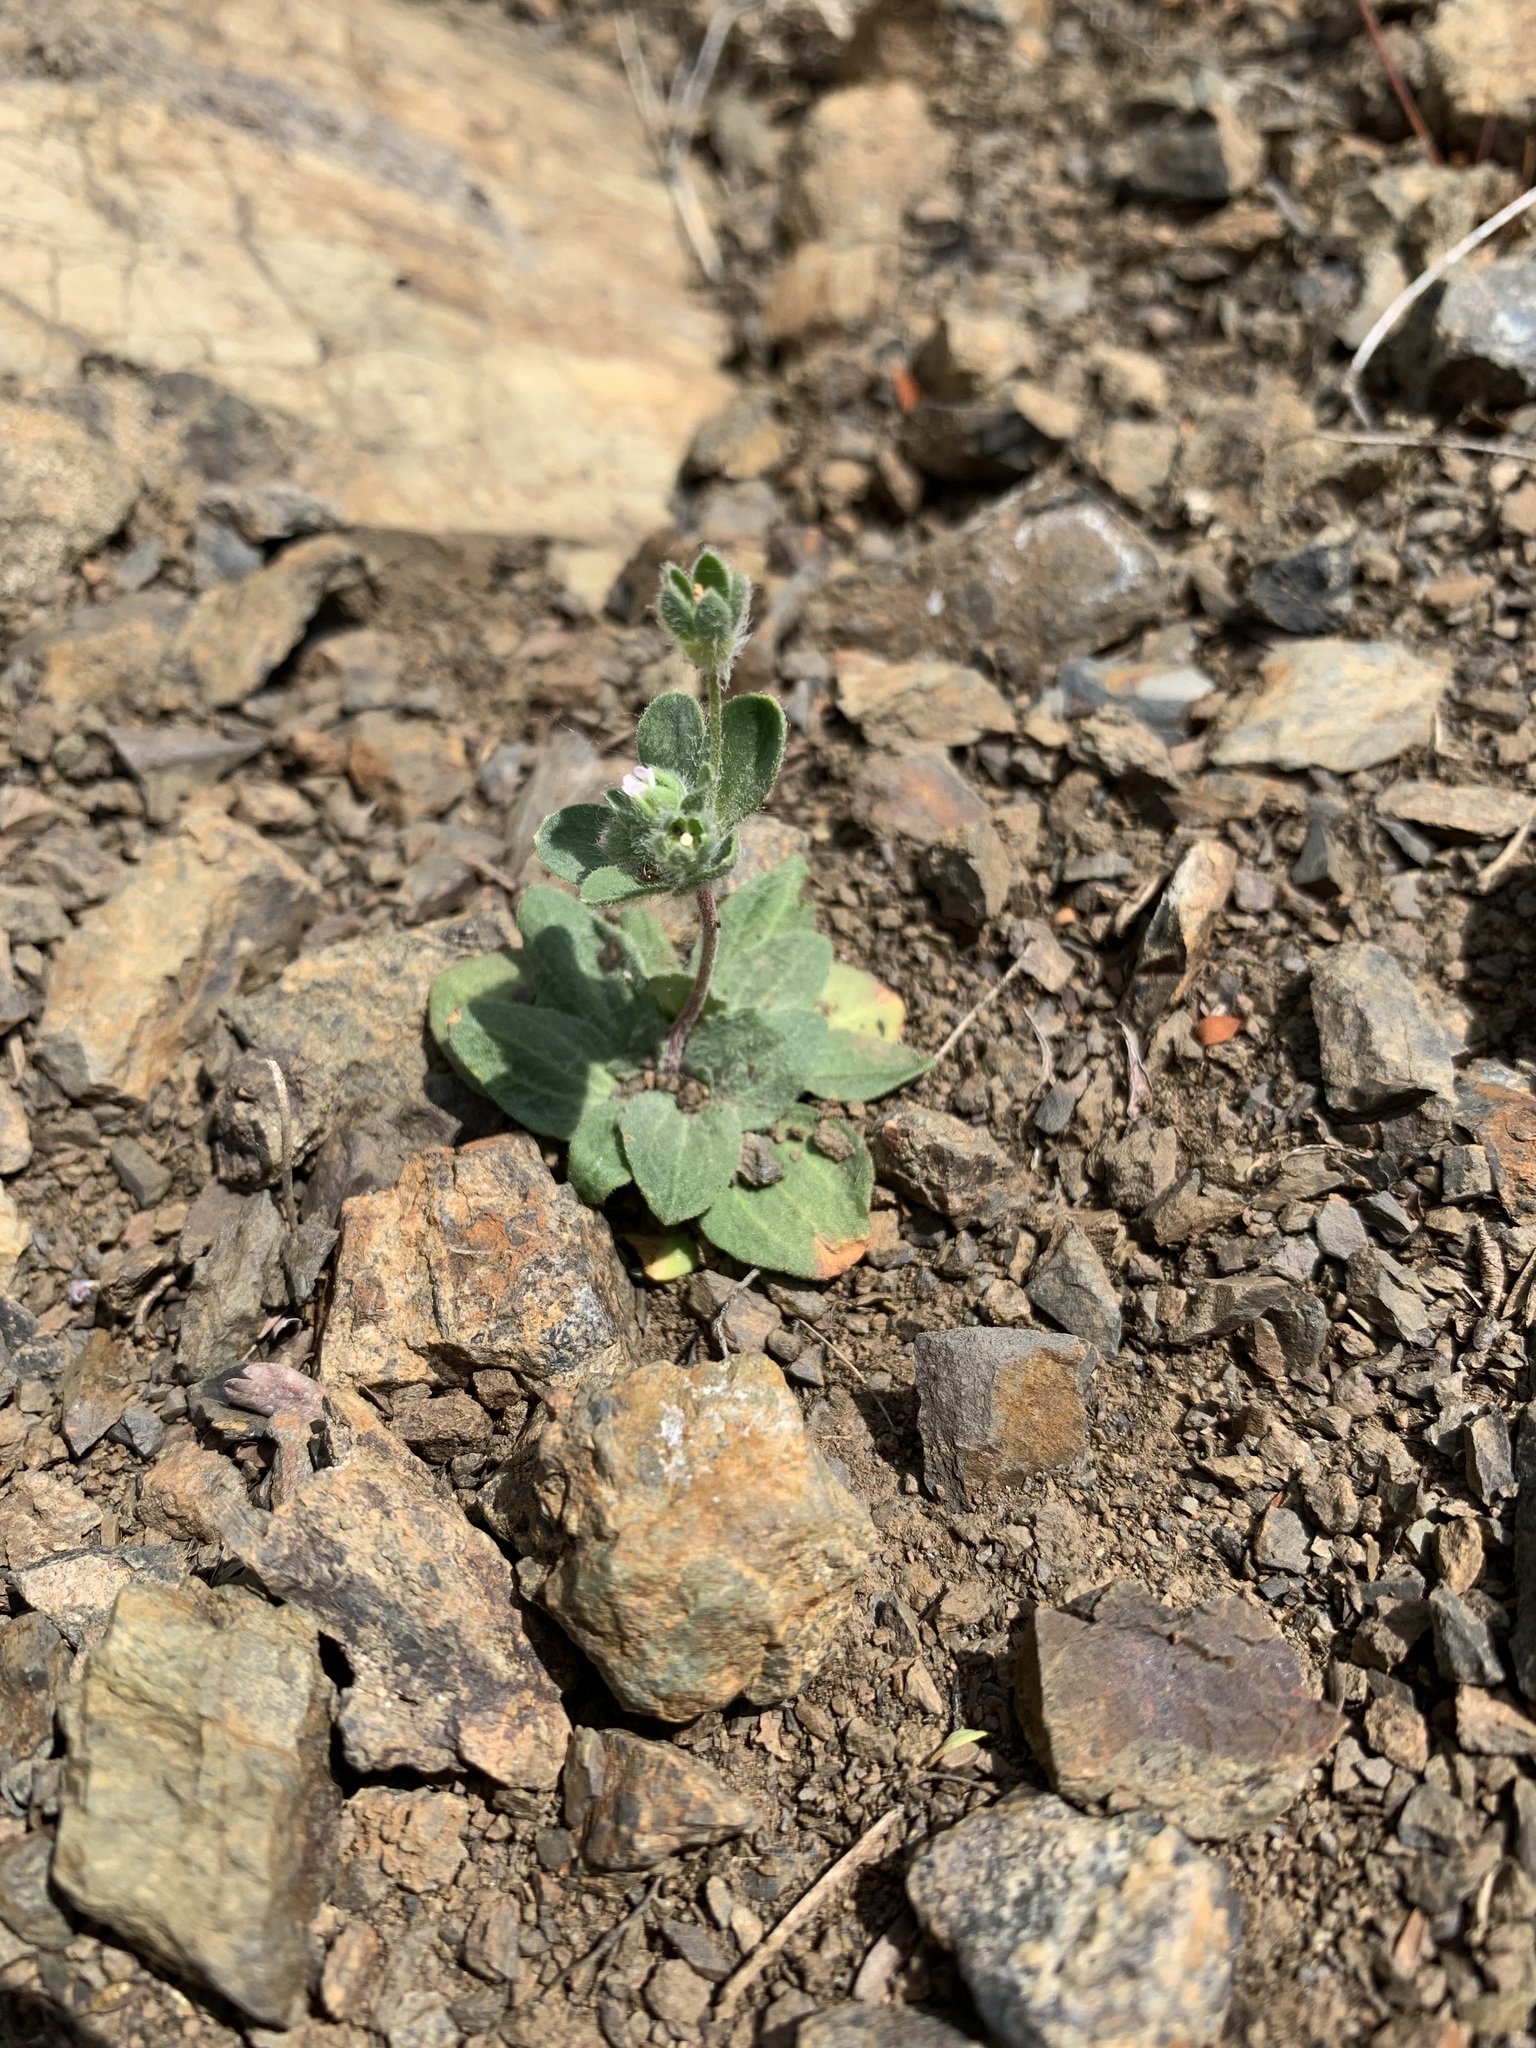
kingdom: Plantae
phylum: Tracheophyta
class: Magnoliopsida
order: Ericales
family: Primulaceae
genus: Androsace
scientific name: Androsace maxima
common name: Annual androsace
